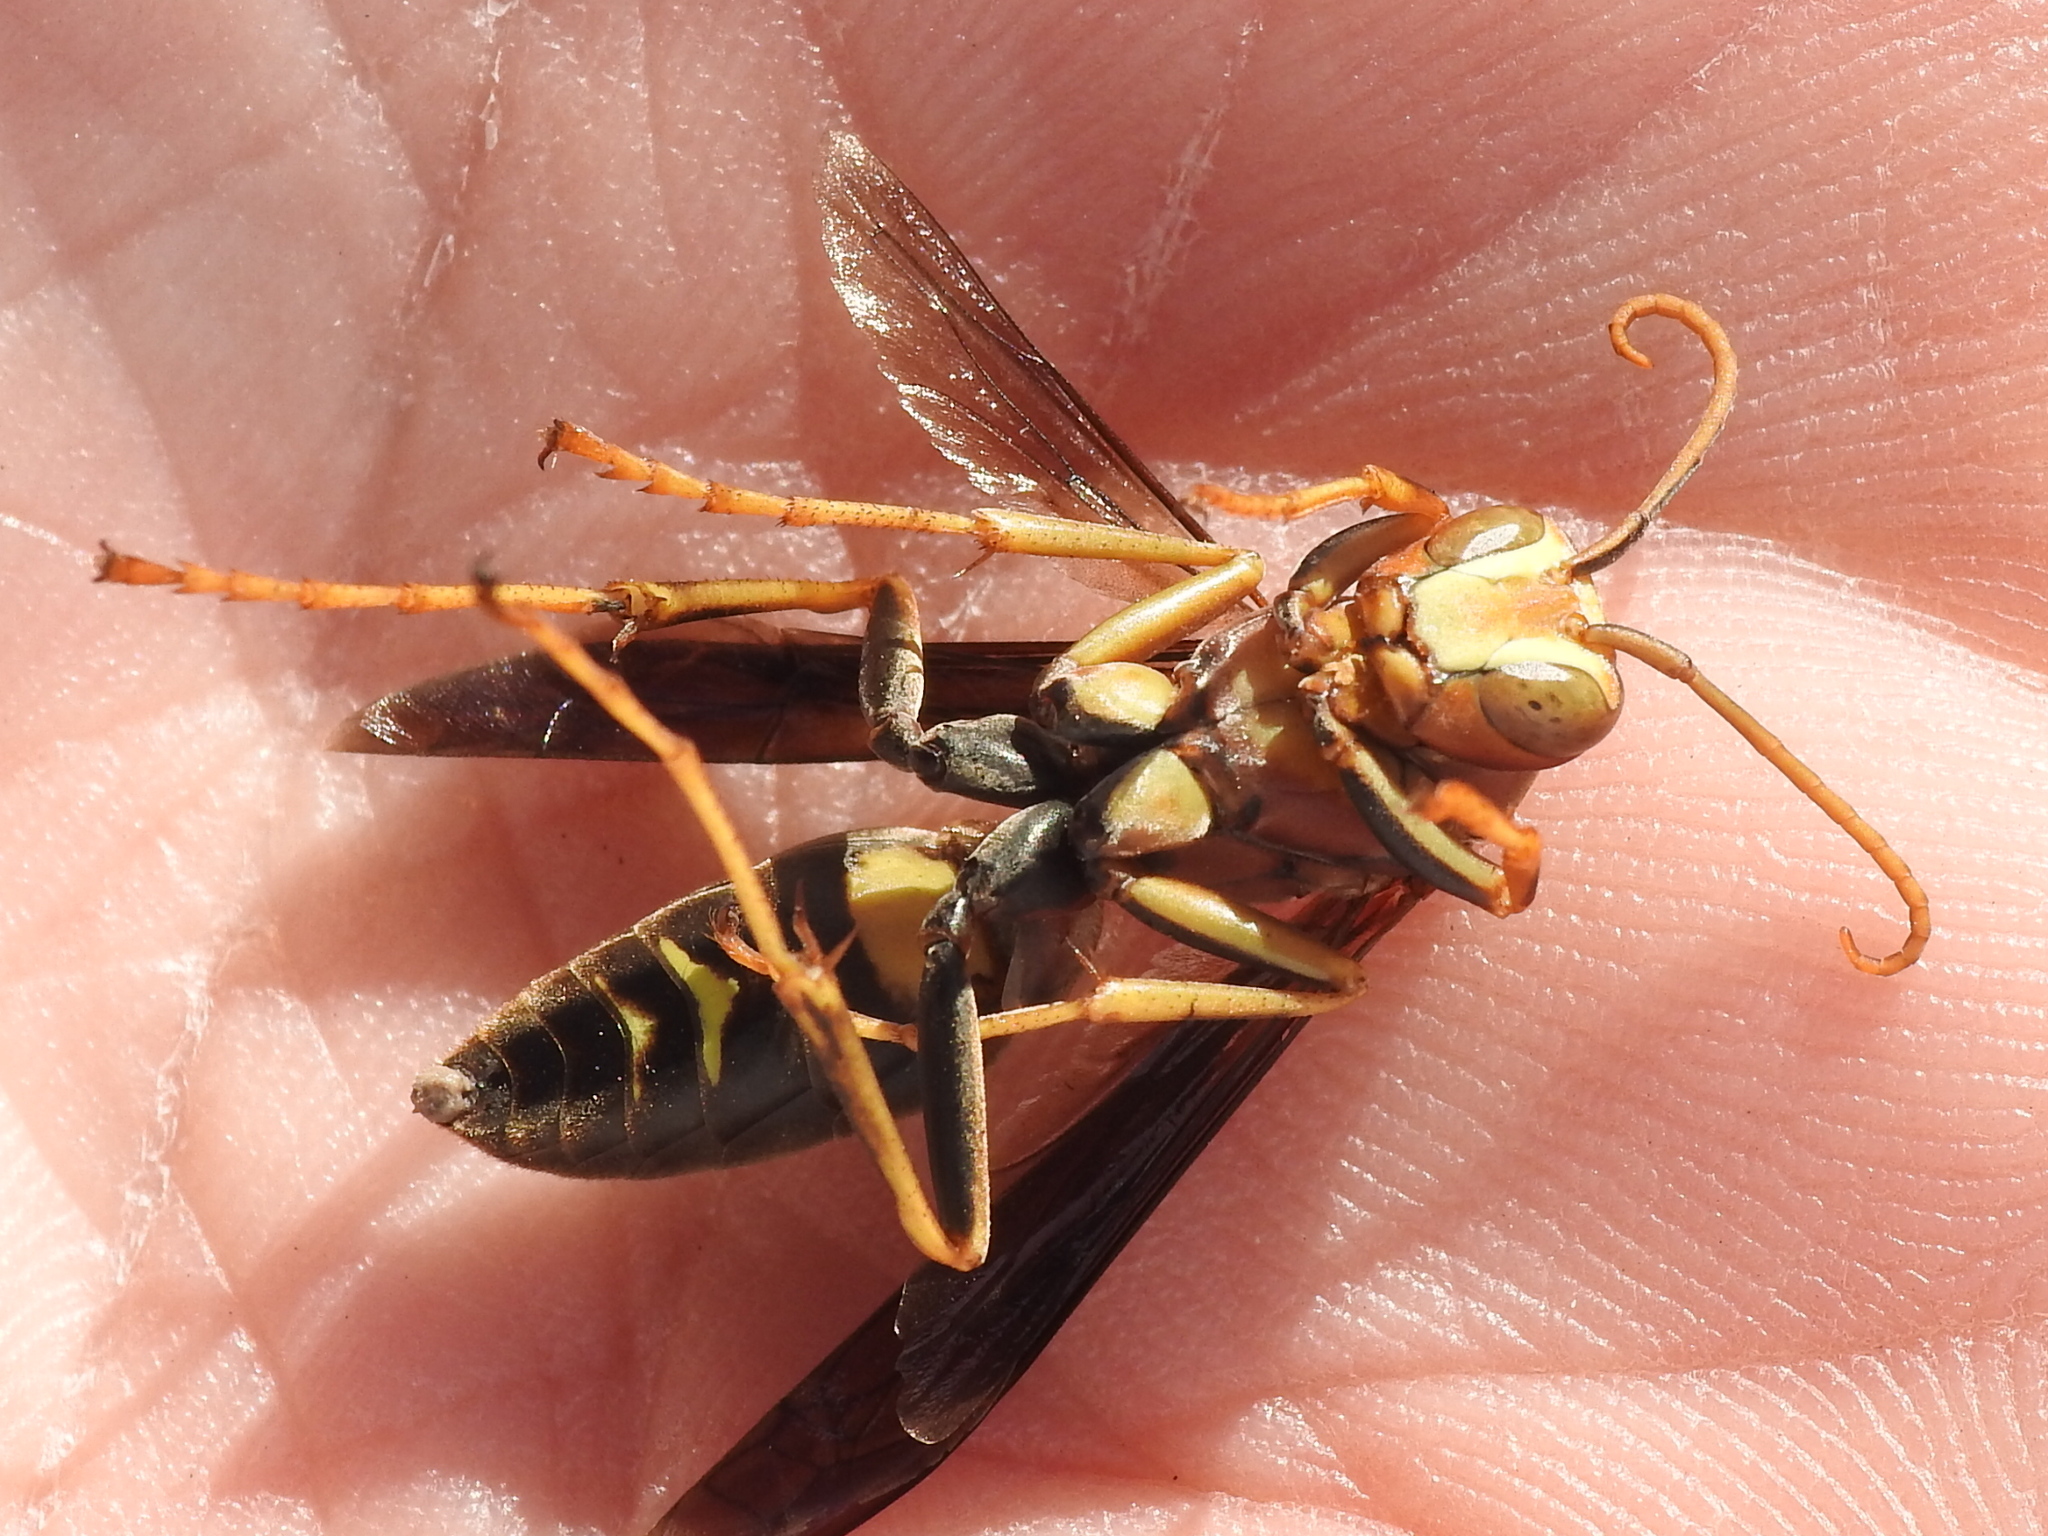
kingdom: Animalia
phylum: Arthropoda
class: Insecta
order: Hymenoptera
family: Eumenidae
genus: Polistes
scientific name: Polistes metricus
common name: Metric paper wasp
